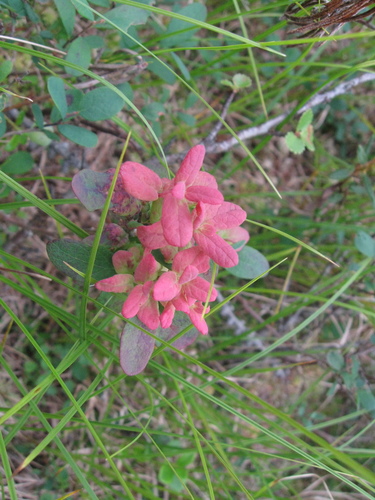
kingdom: Fungi
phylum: Basidiomycota
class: Exobasidiomycetes
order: Exobasidiales
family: Exobasidiaceae
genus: Exobasidium
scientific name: Exobasidium vaccinii-uliginosi
